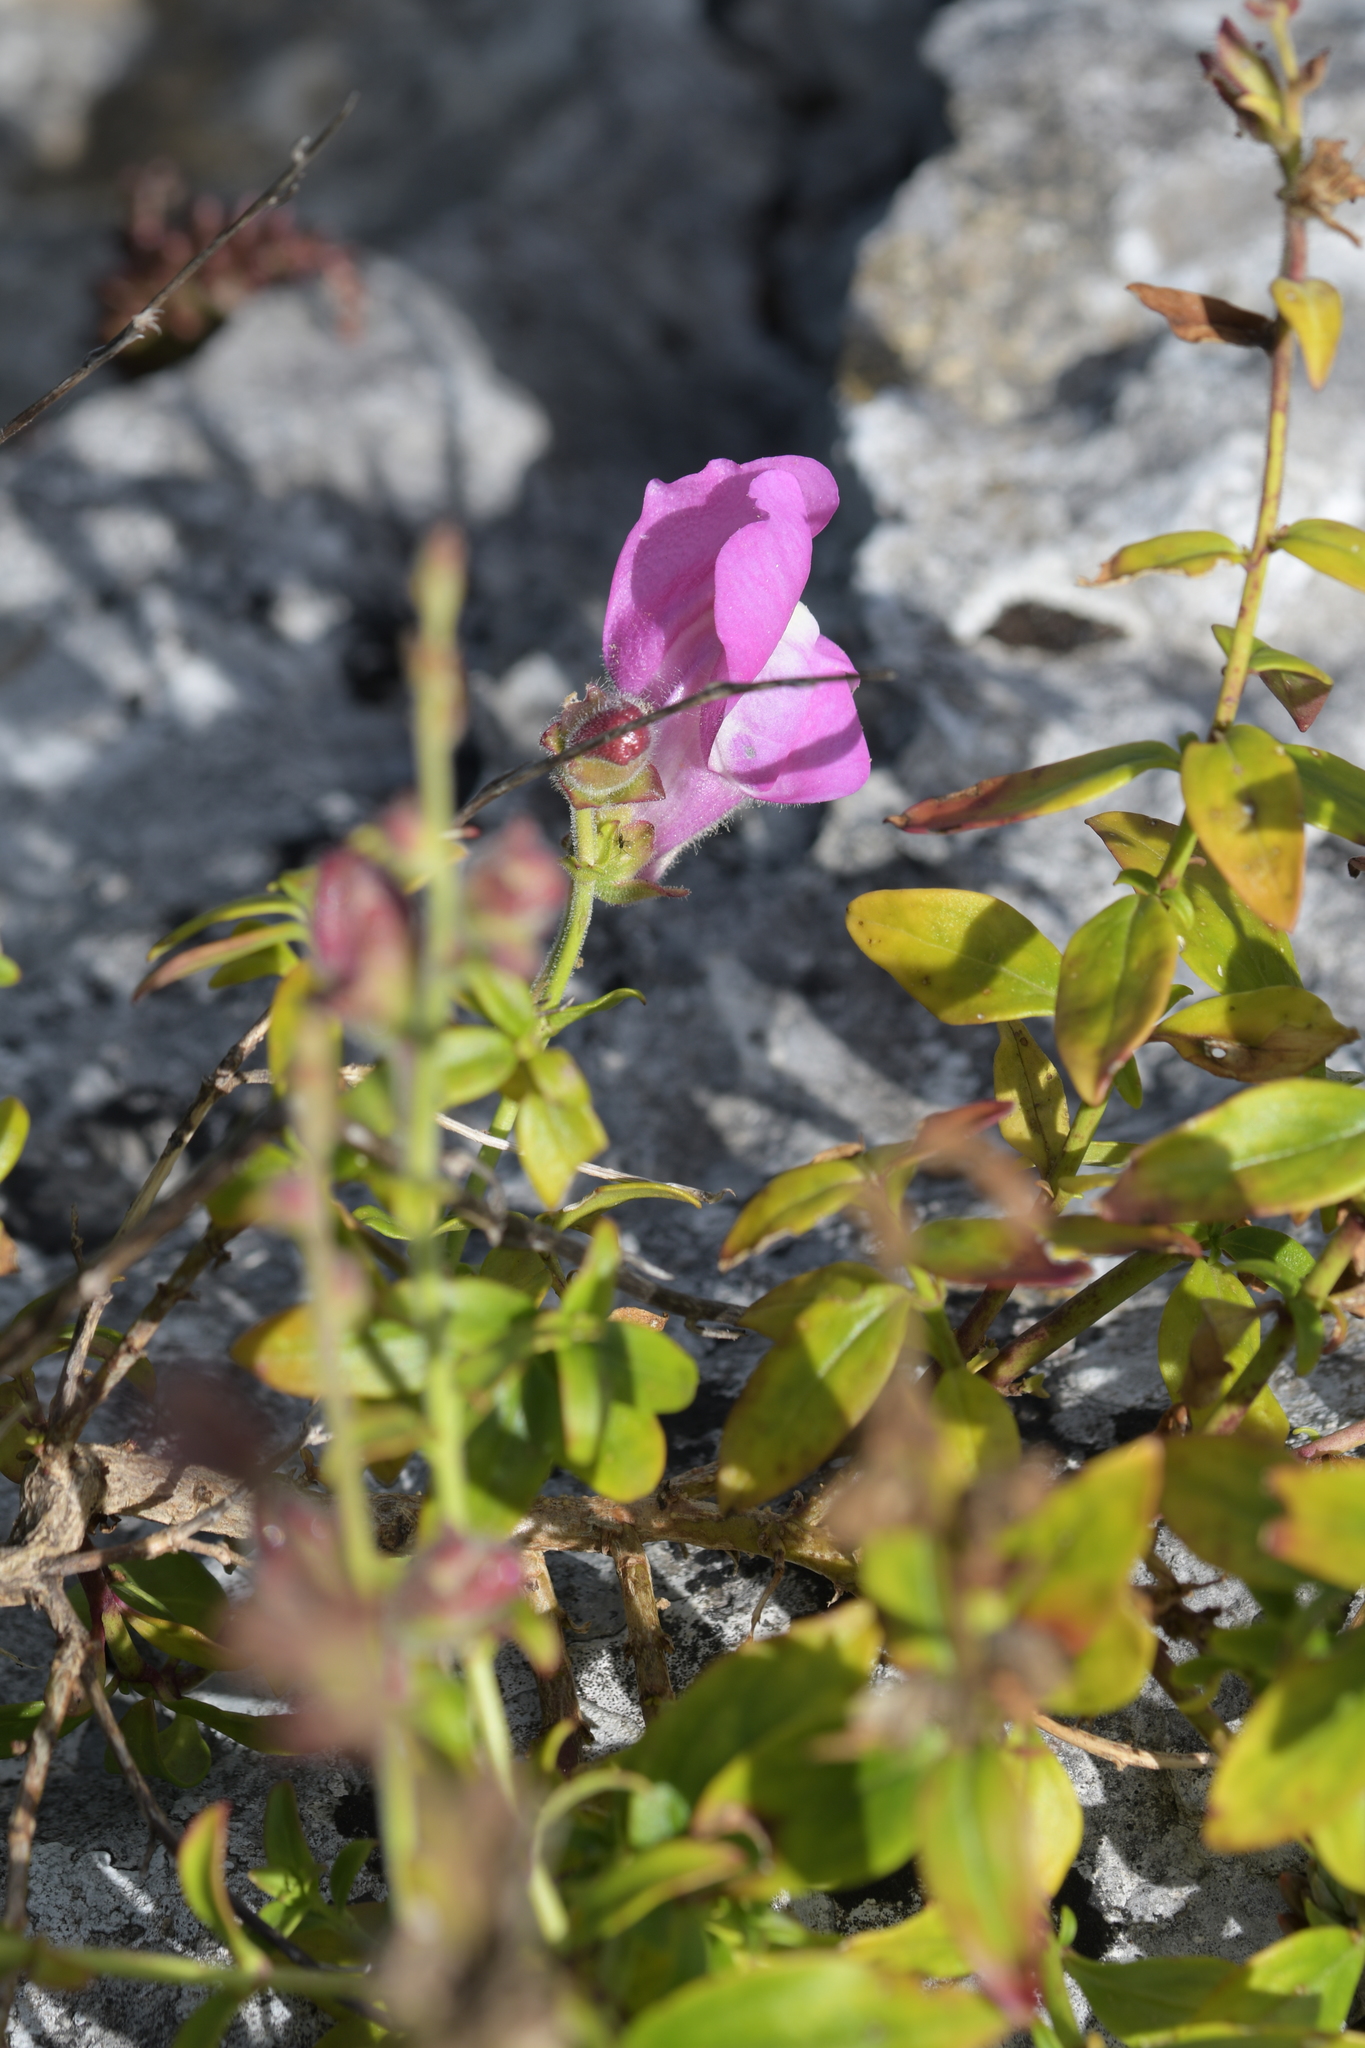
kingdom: Plantae
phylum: Tracheophyta
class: Magnoliopsida
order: Lamiales
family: Plantaginaceae
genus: Antirrhinum
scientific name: Antirrhinum linkianum
